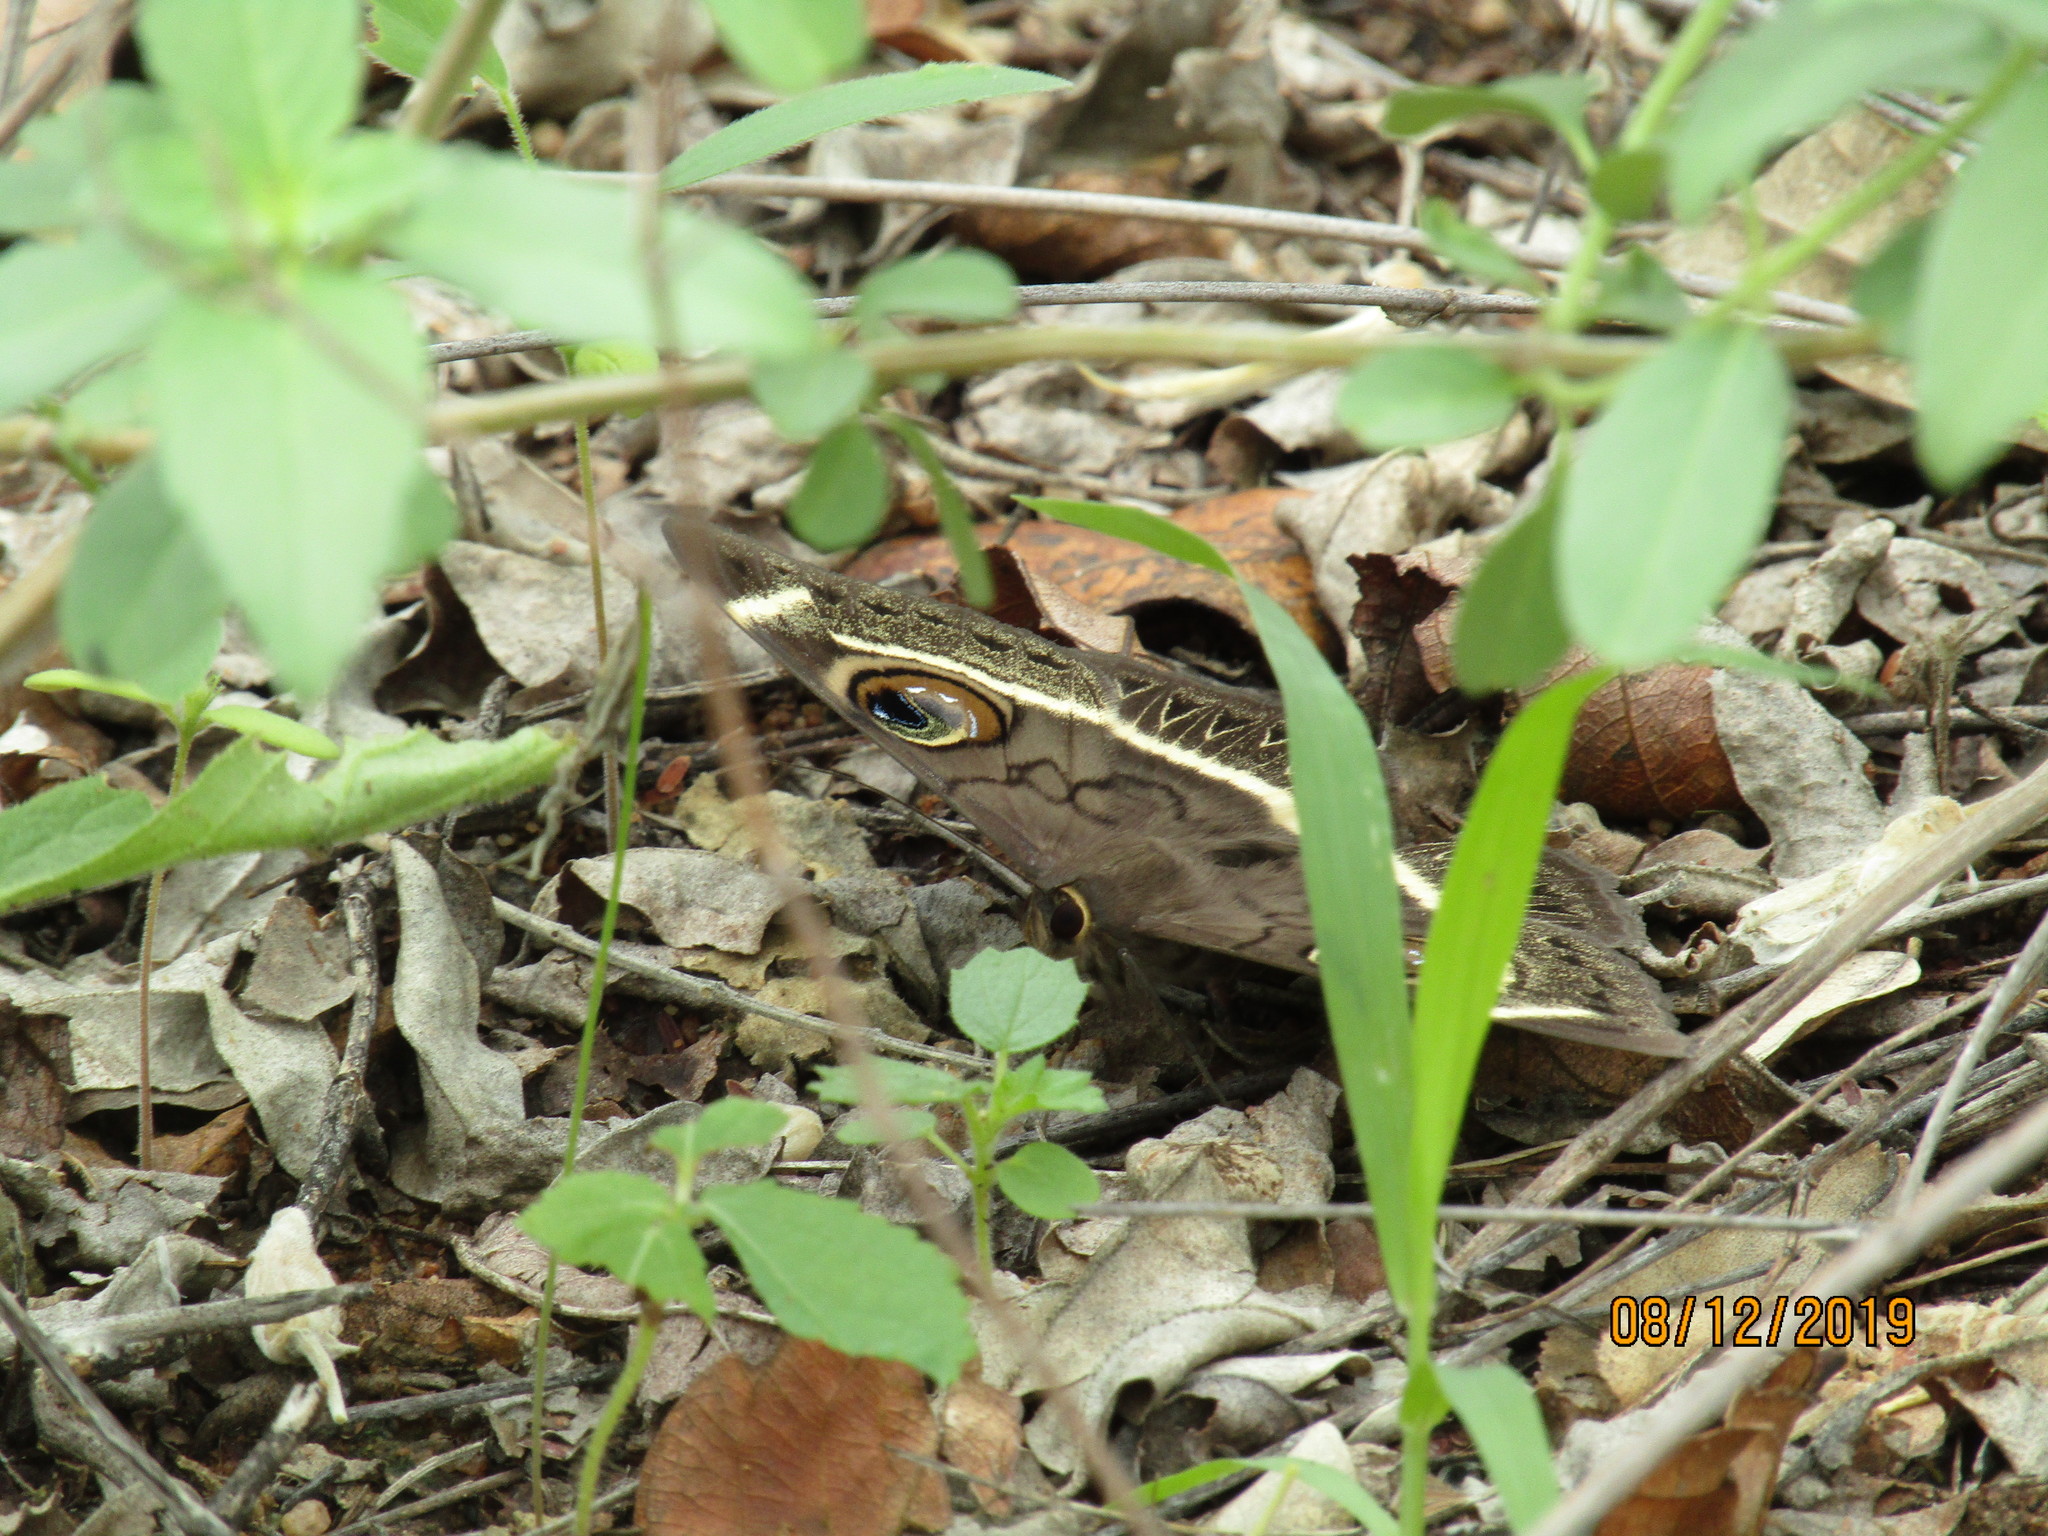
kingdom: Animalia
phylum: Arthropoda
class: Insecta
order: Lepidoptera
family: Erebidae
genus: Cyligramma
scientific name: Cyligramma latona
